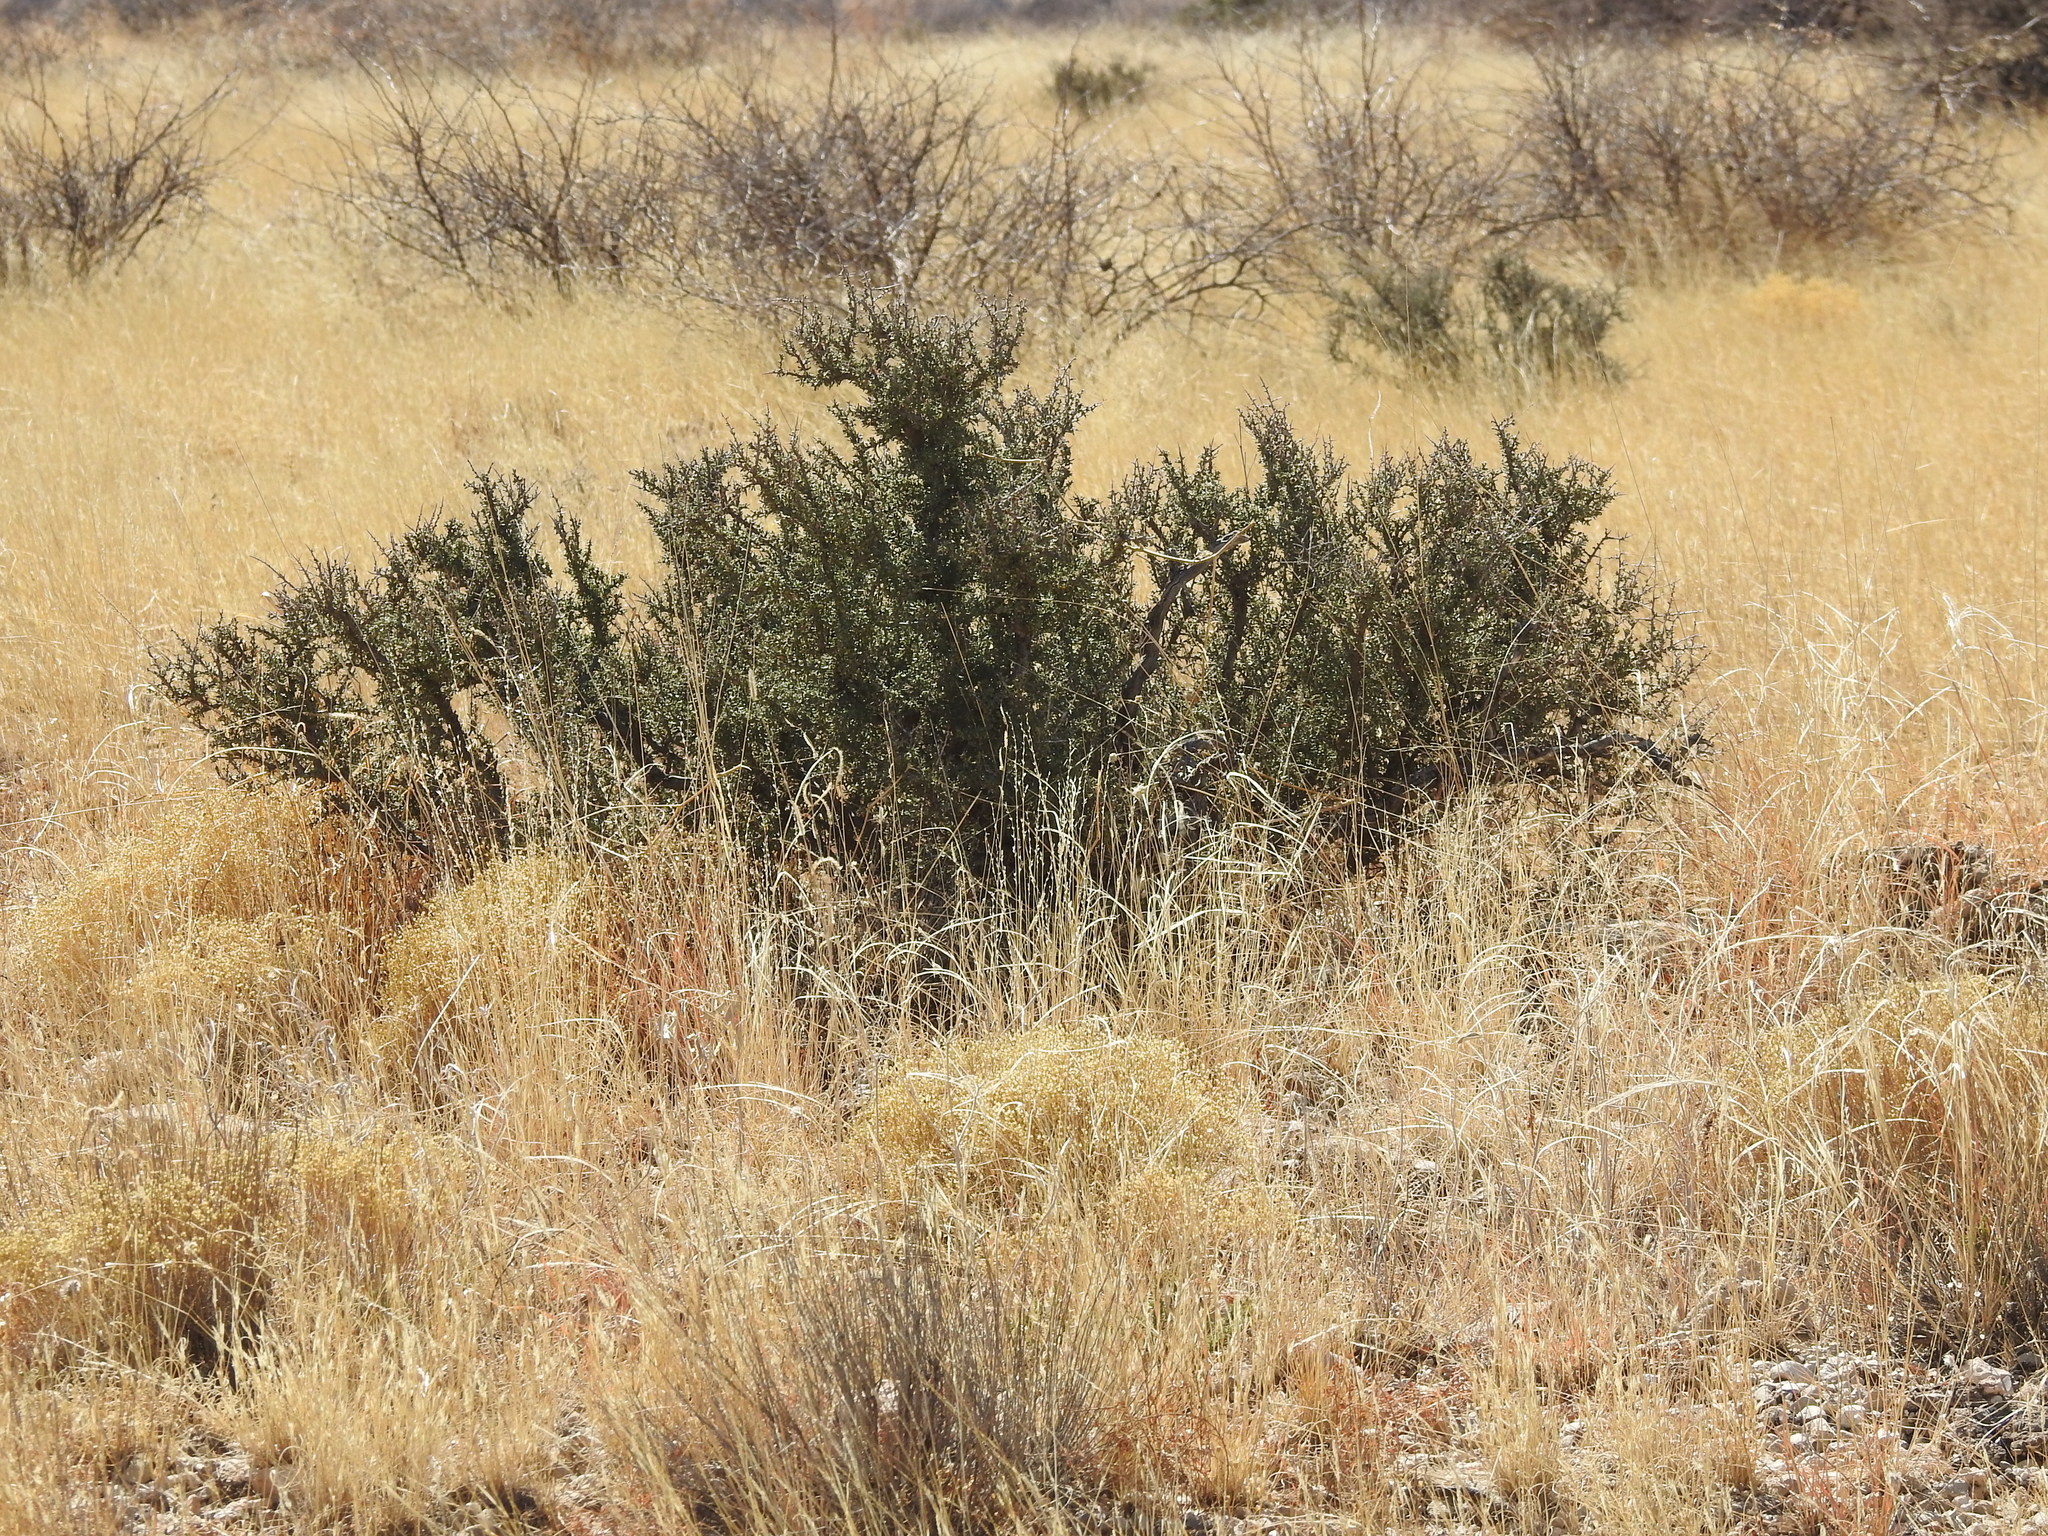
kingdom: Plantae
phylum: Tracheophyta
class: Magnoliopsida
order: Rosales
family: Rhamnaceae
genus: Condalia
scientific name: Condalia ericoides
